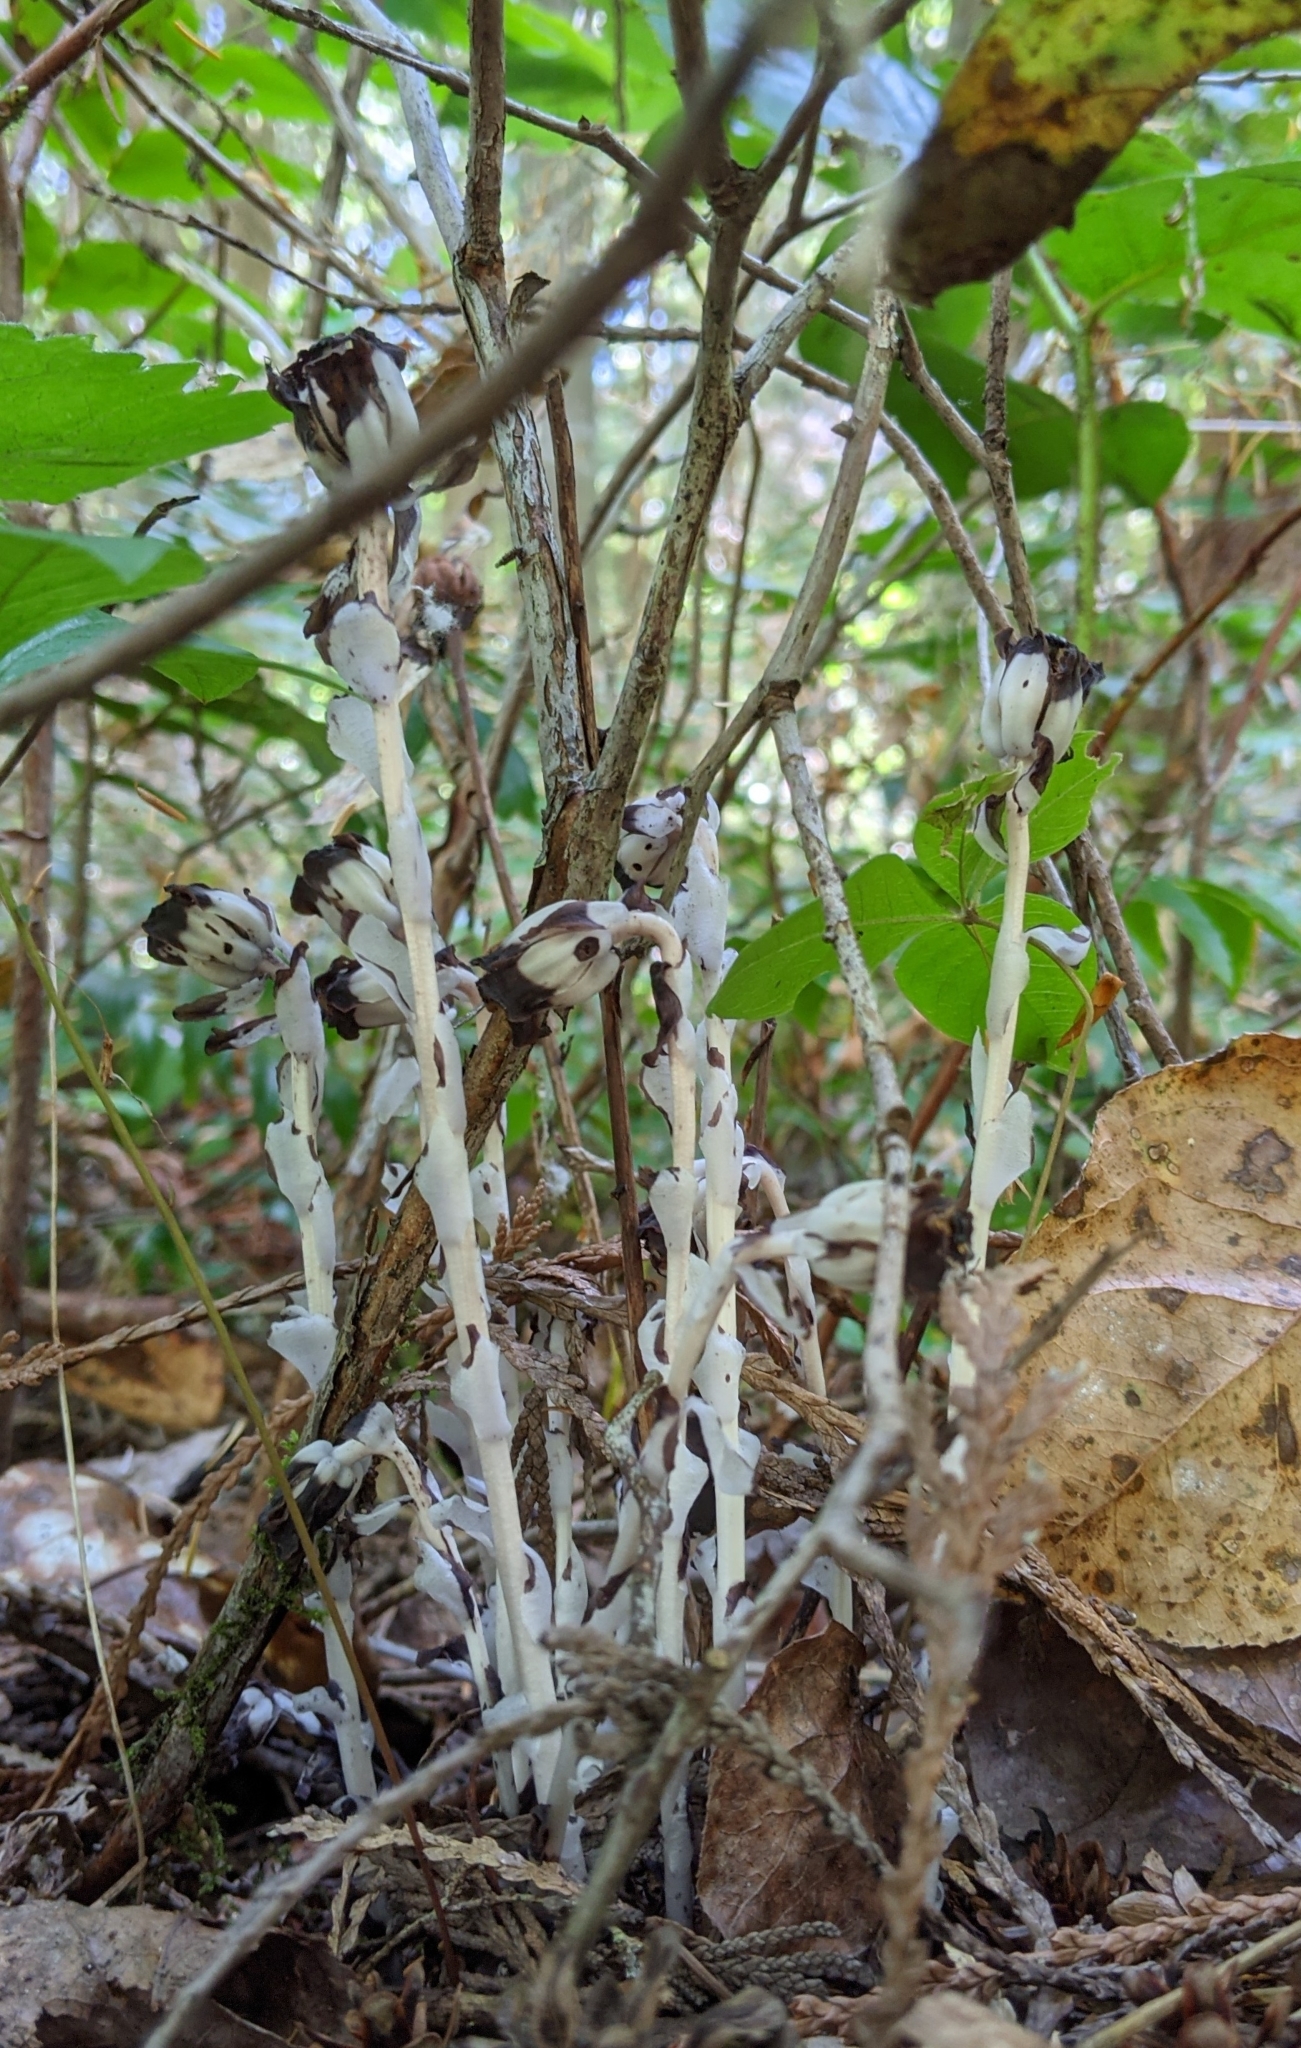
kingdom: Plantae
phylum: Tracheophyta
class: Magnoliopsida
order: Ericales
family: Ericaceae
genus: Monotropa
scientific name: Monotropa uniflora
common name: Convulsion root
